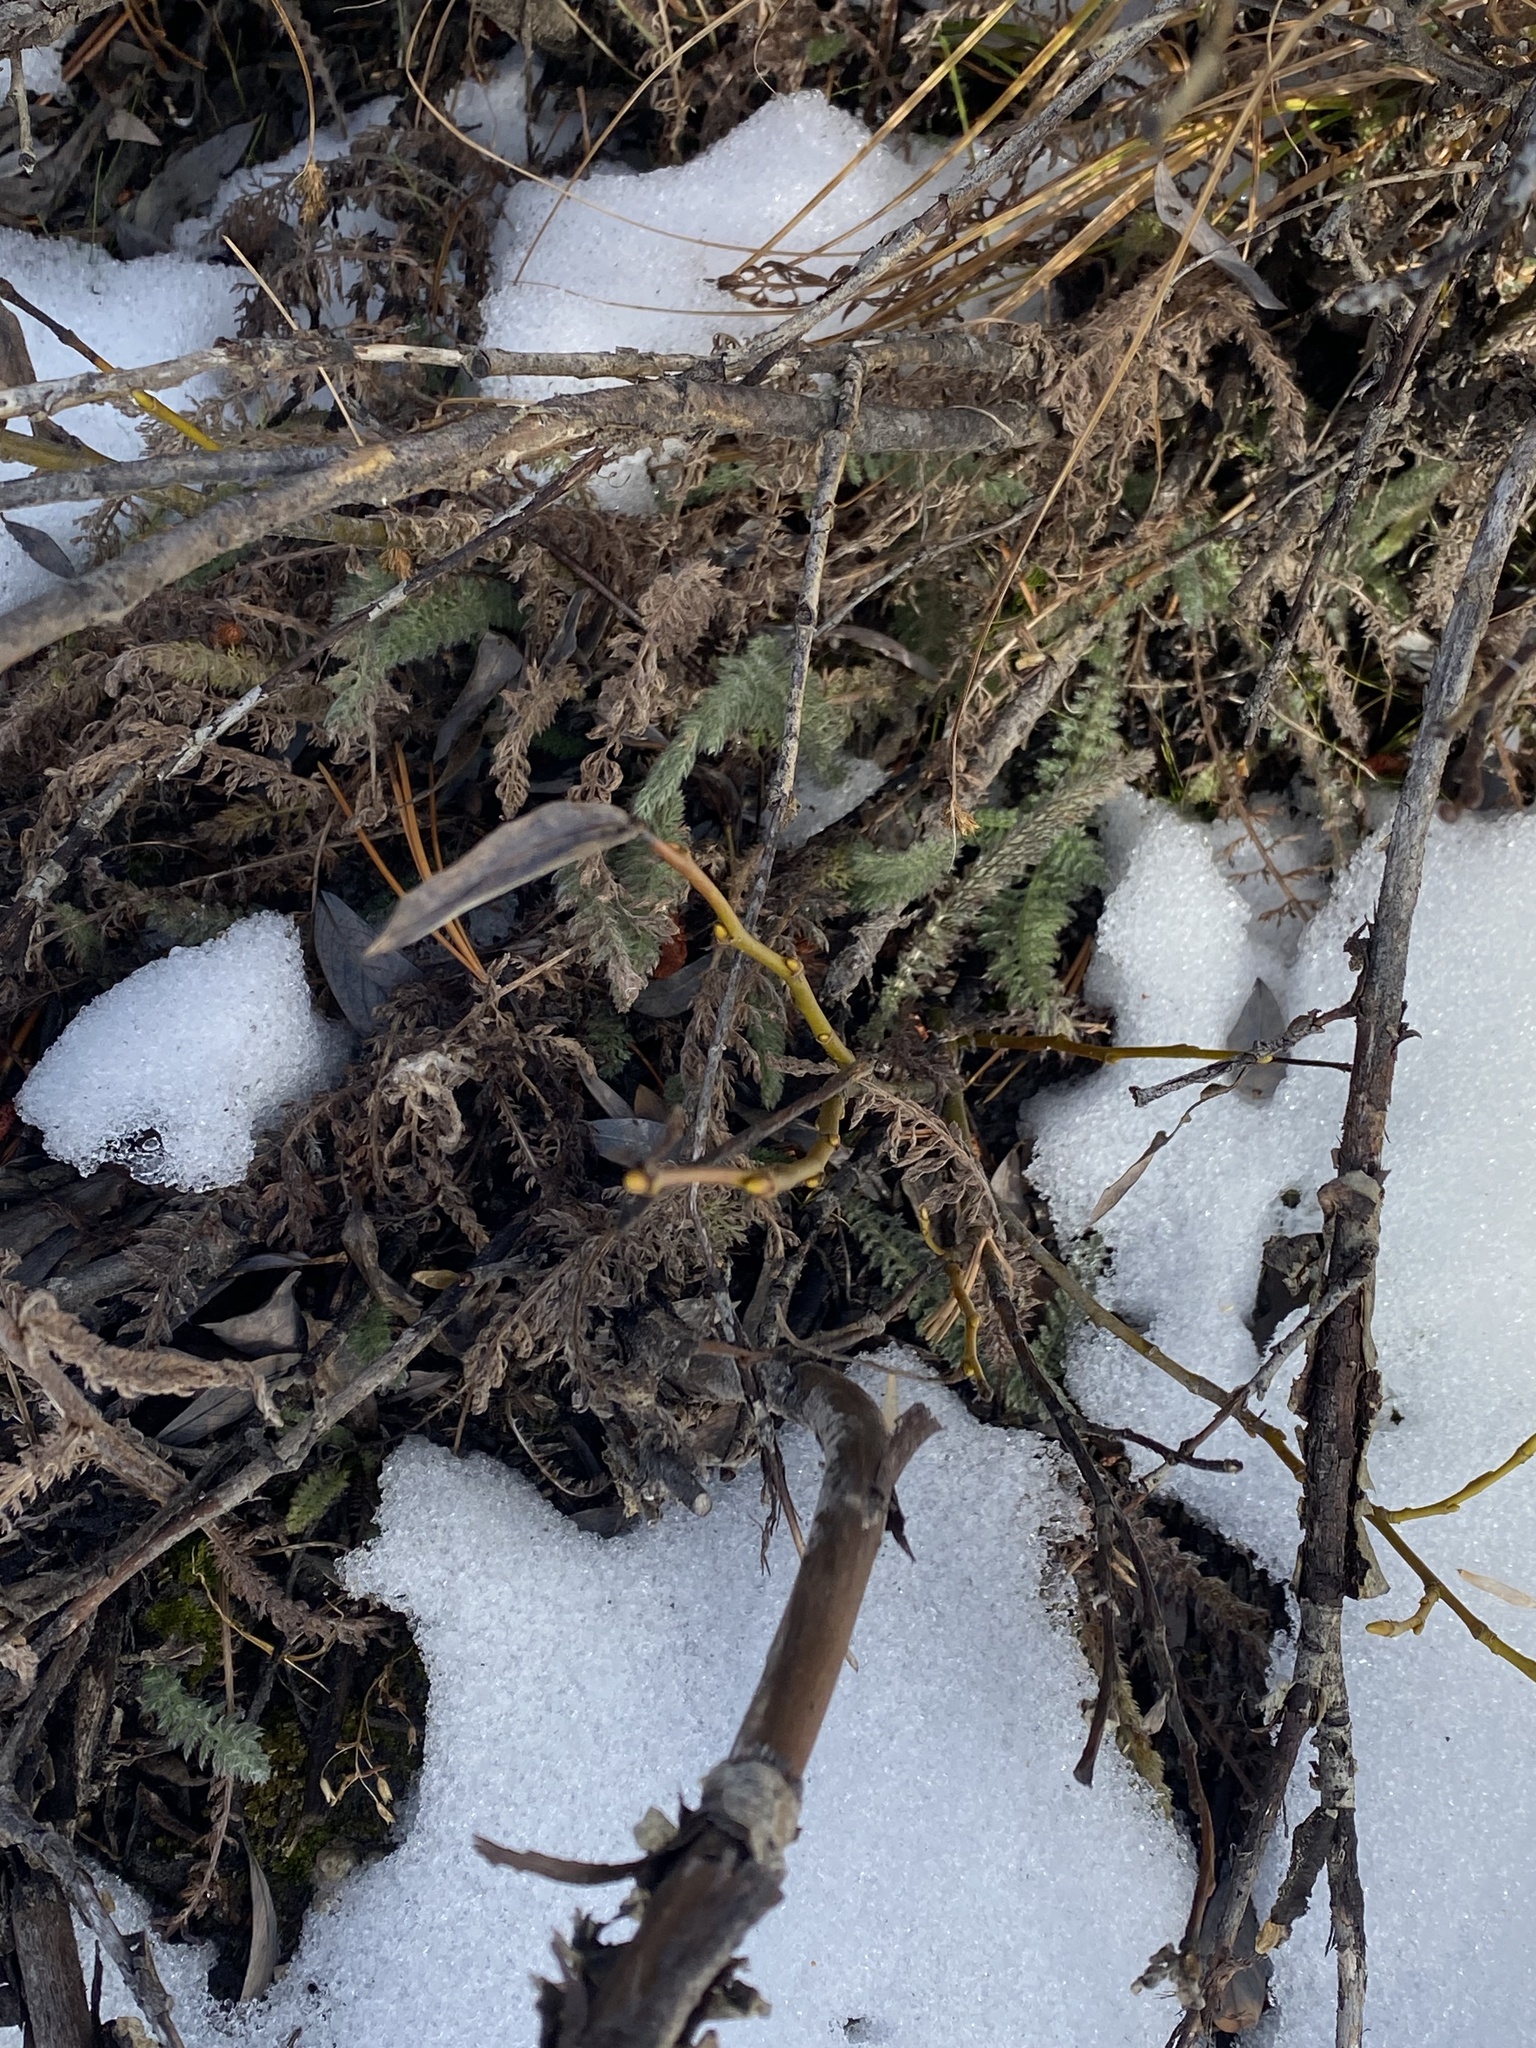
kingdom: Plantae
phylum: Tracheophyta
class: Magnoliopsida
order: Asterales
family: Asteraceae
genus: Achillea
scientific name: Achillea millefolium
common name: Yarrow
